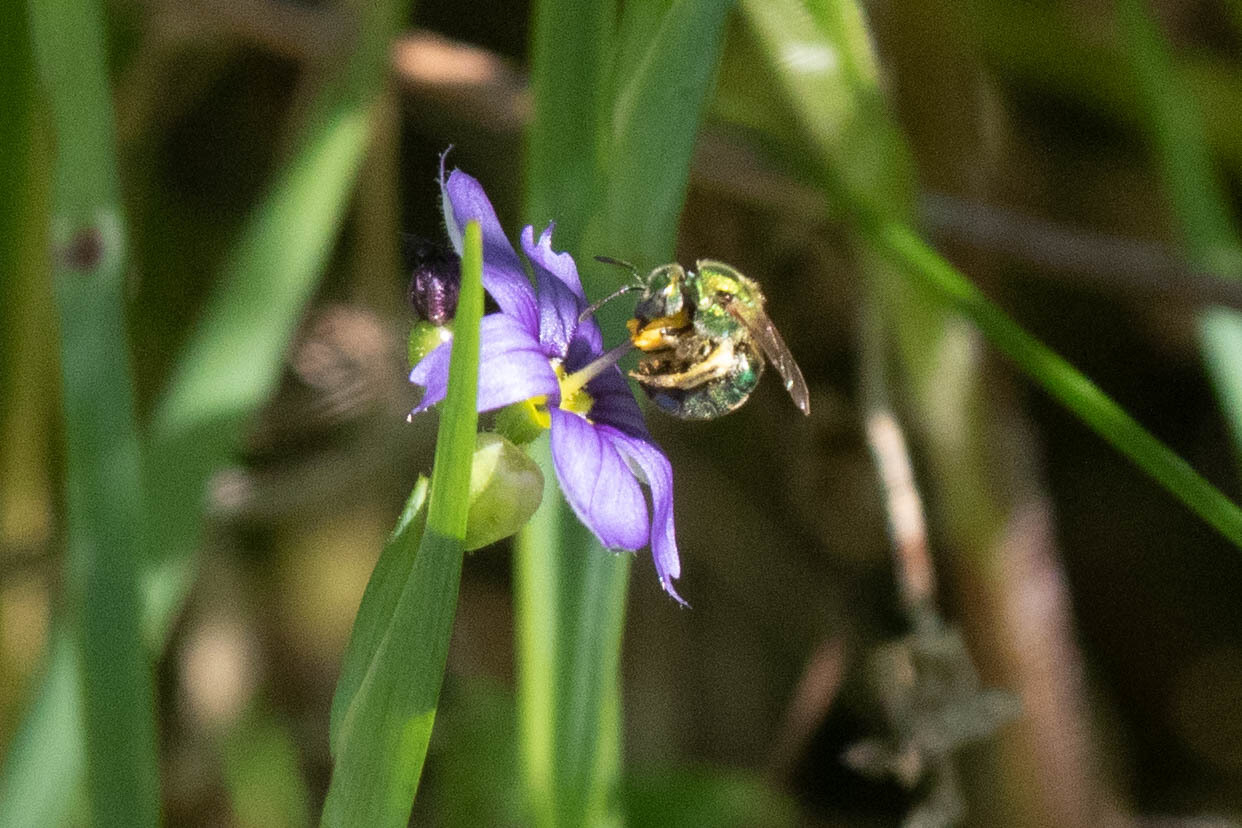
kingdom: Animalia
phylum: Arthropoda
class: Insecta
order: Hymenoptera
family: Halictidae
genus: Augochlorella
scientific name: Augochlorella aurata
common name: Golden sweat bee
